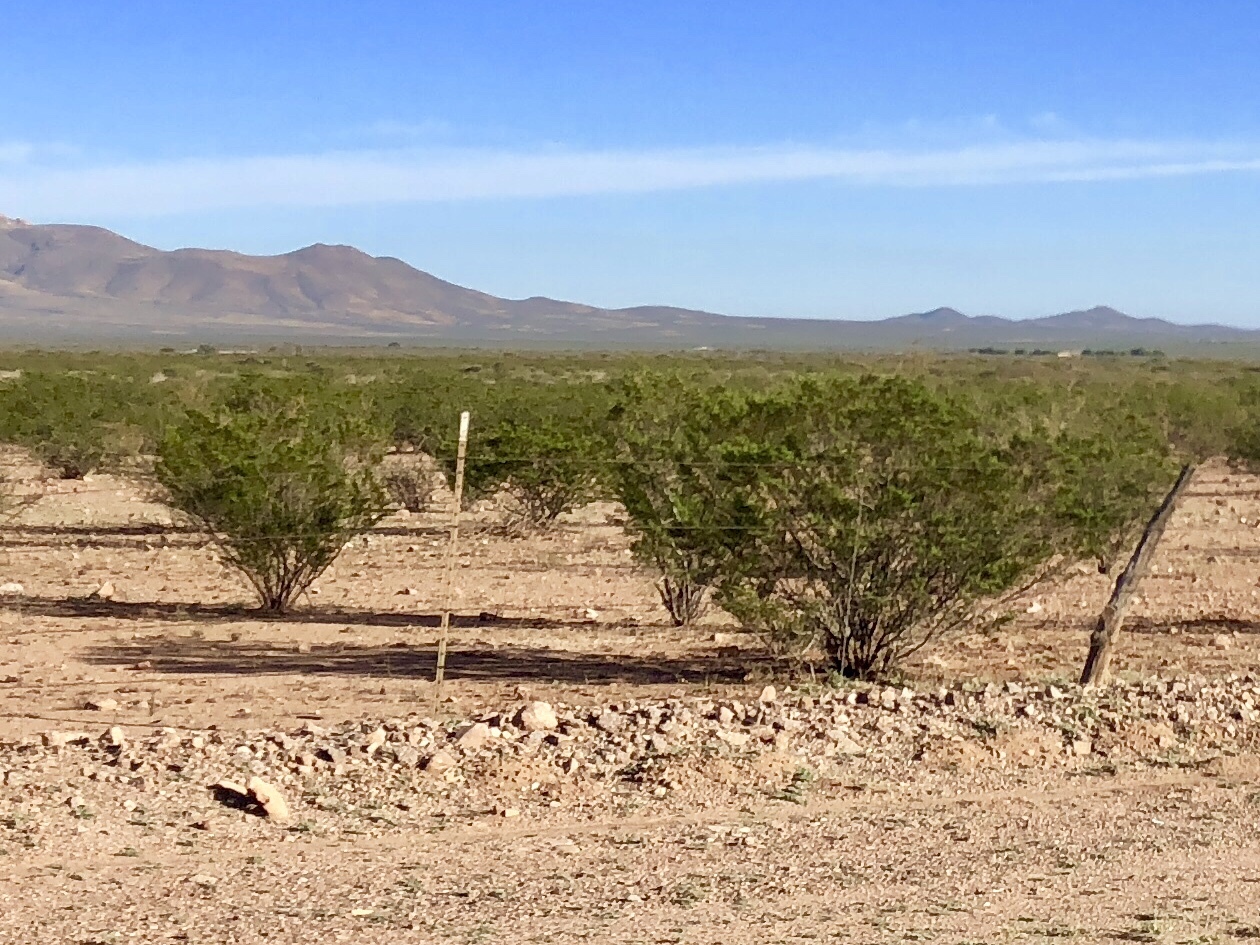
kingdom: Plantae
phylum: Tracheophyta
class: Magnoliopsida
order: Zygophyllales
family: Zygophyllaceae
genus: Larrea
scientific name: Larrea tridentata
